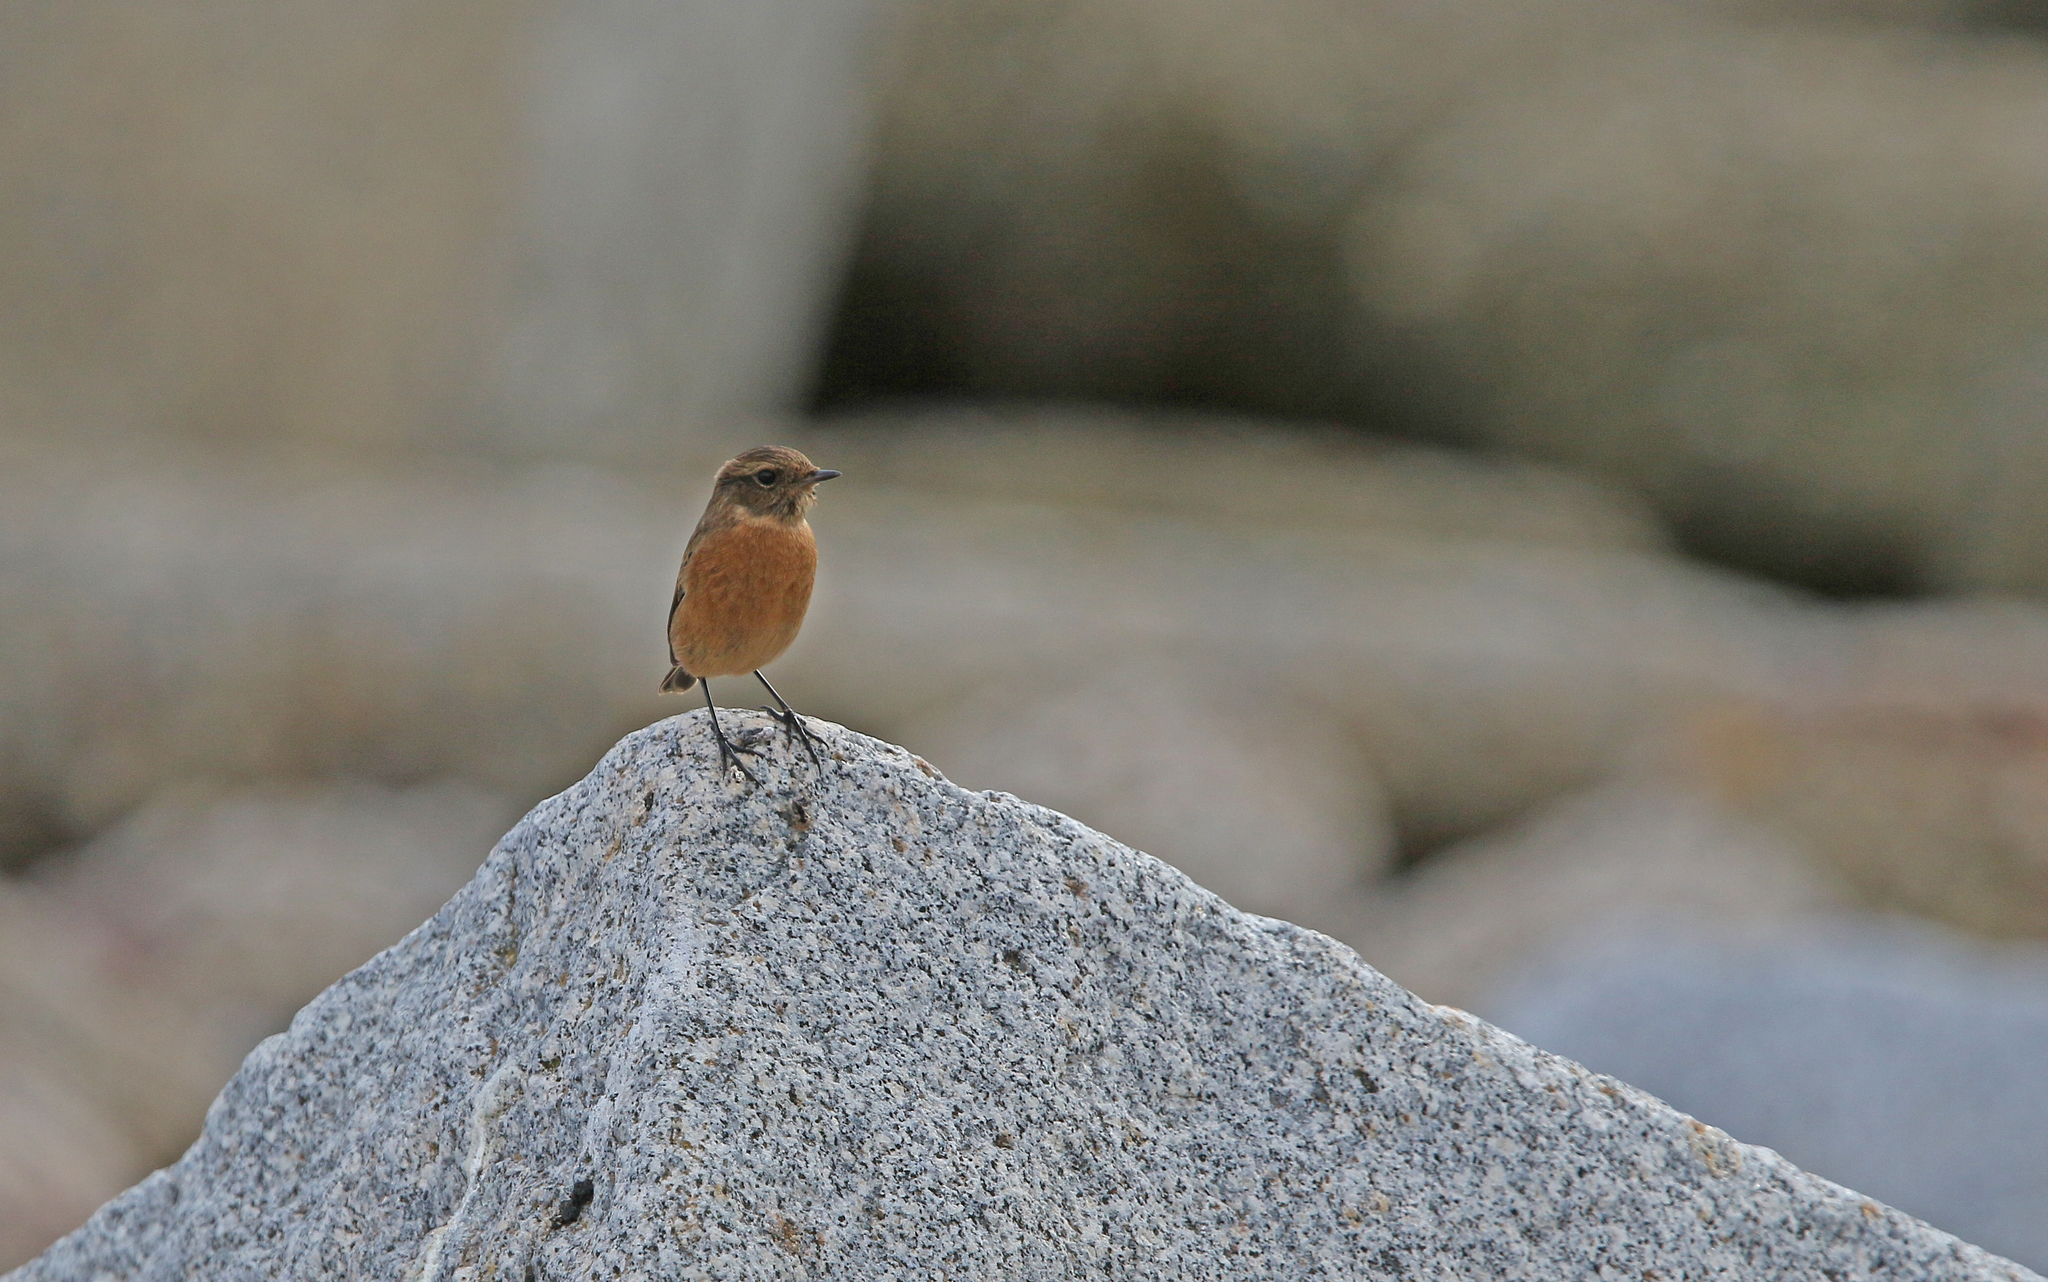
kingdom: Animalia
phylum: Chordata
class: Aves
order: Passeriformes
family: Muscicapidae
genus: Saxicola
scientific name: Saxicola rubicola
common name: European stonechat
